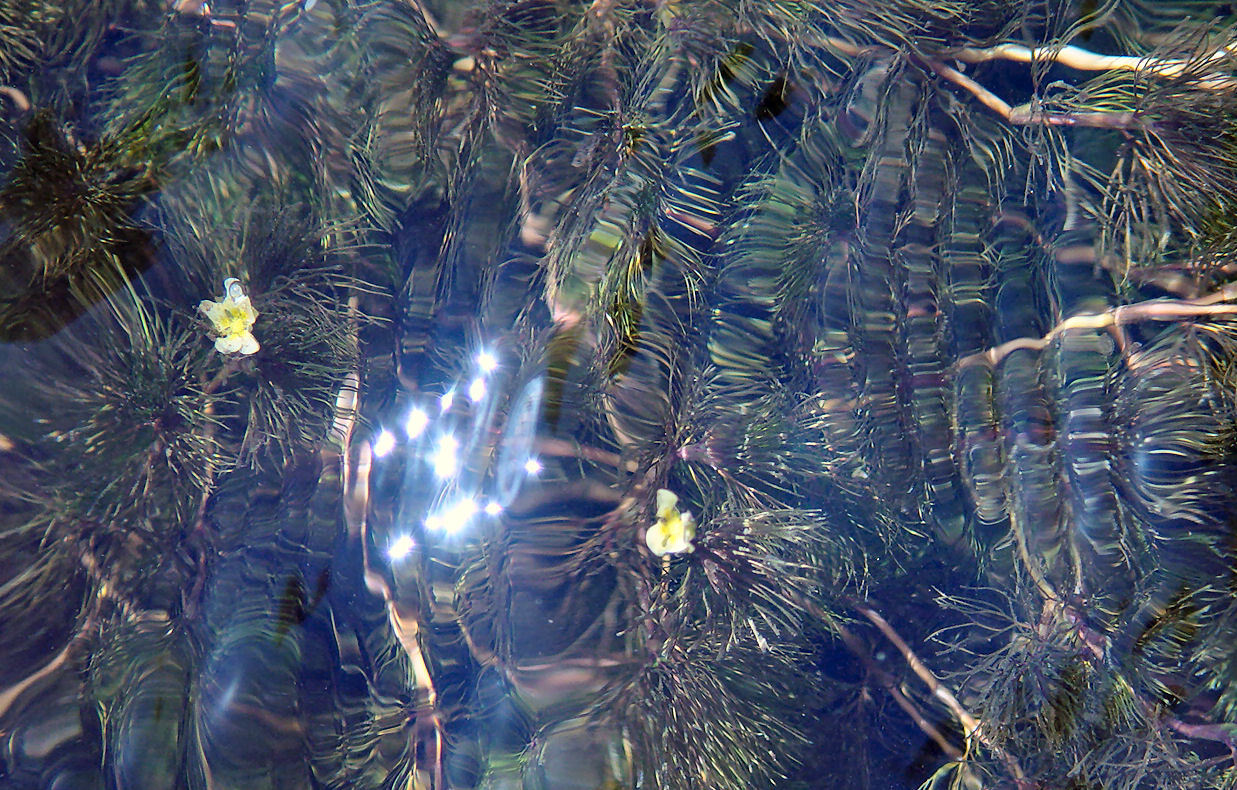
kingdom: Plantae
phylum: Tracheophyta
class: Magnoliopsida
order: Ranunculales
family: Ranunculaceae
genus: Ranunculus
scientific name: Ranunculus aquatilis
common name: Common water-crowfoot
